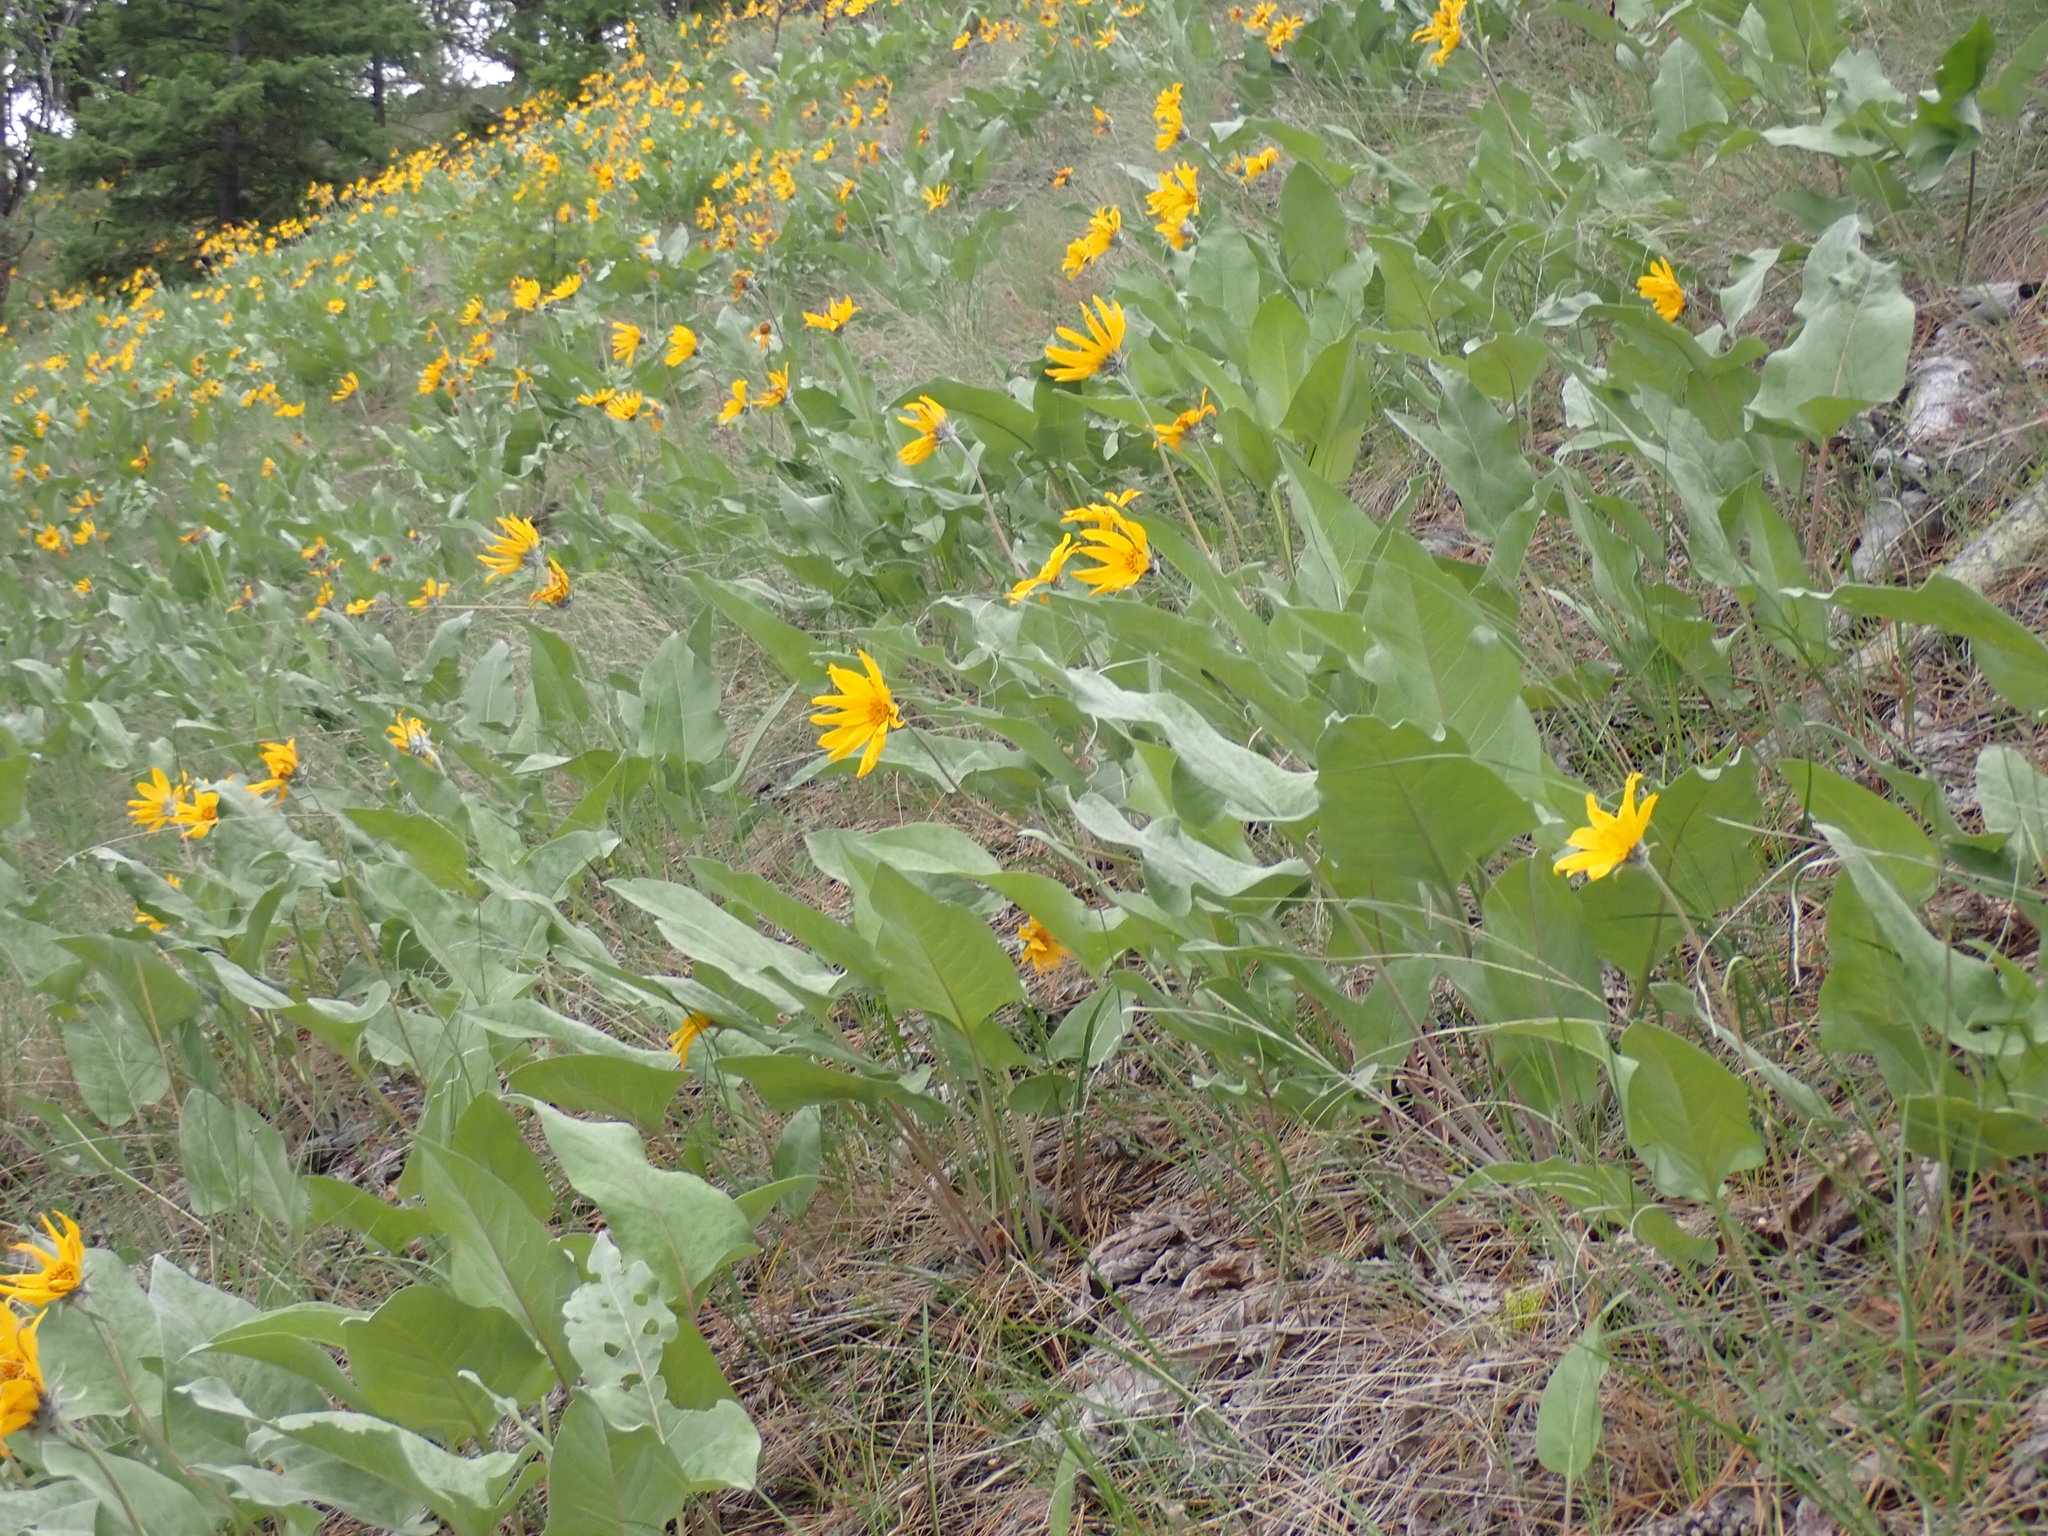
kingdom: Plantae
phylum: Tracheophyta
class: Magnoliopsida
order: Asterales
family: Asteraceae
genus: Wyethia
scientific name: Wyethia sagittata
